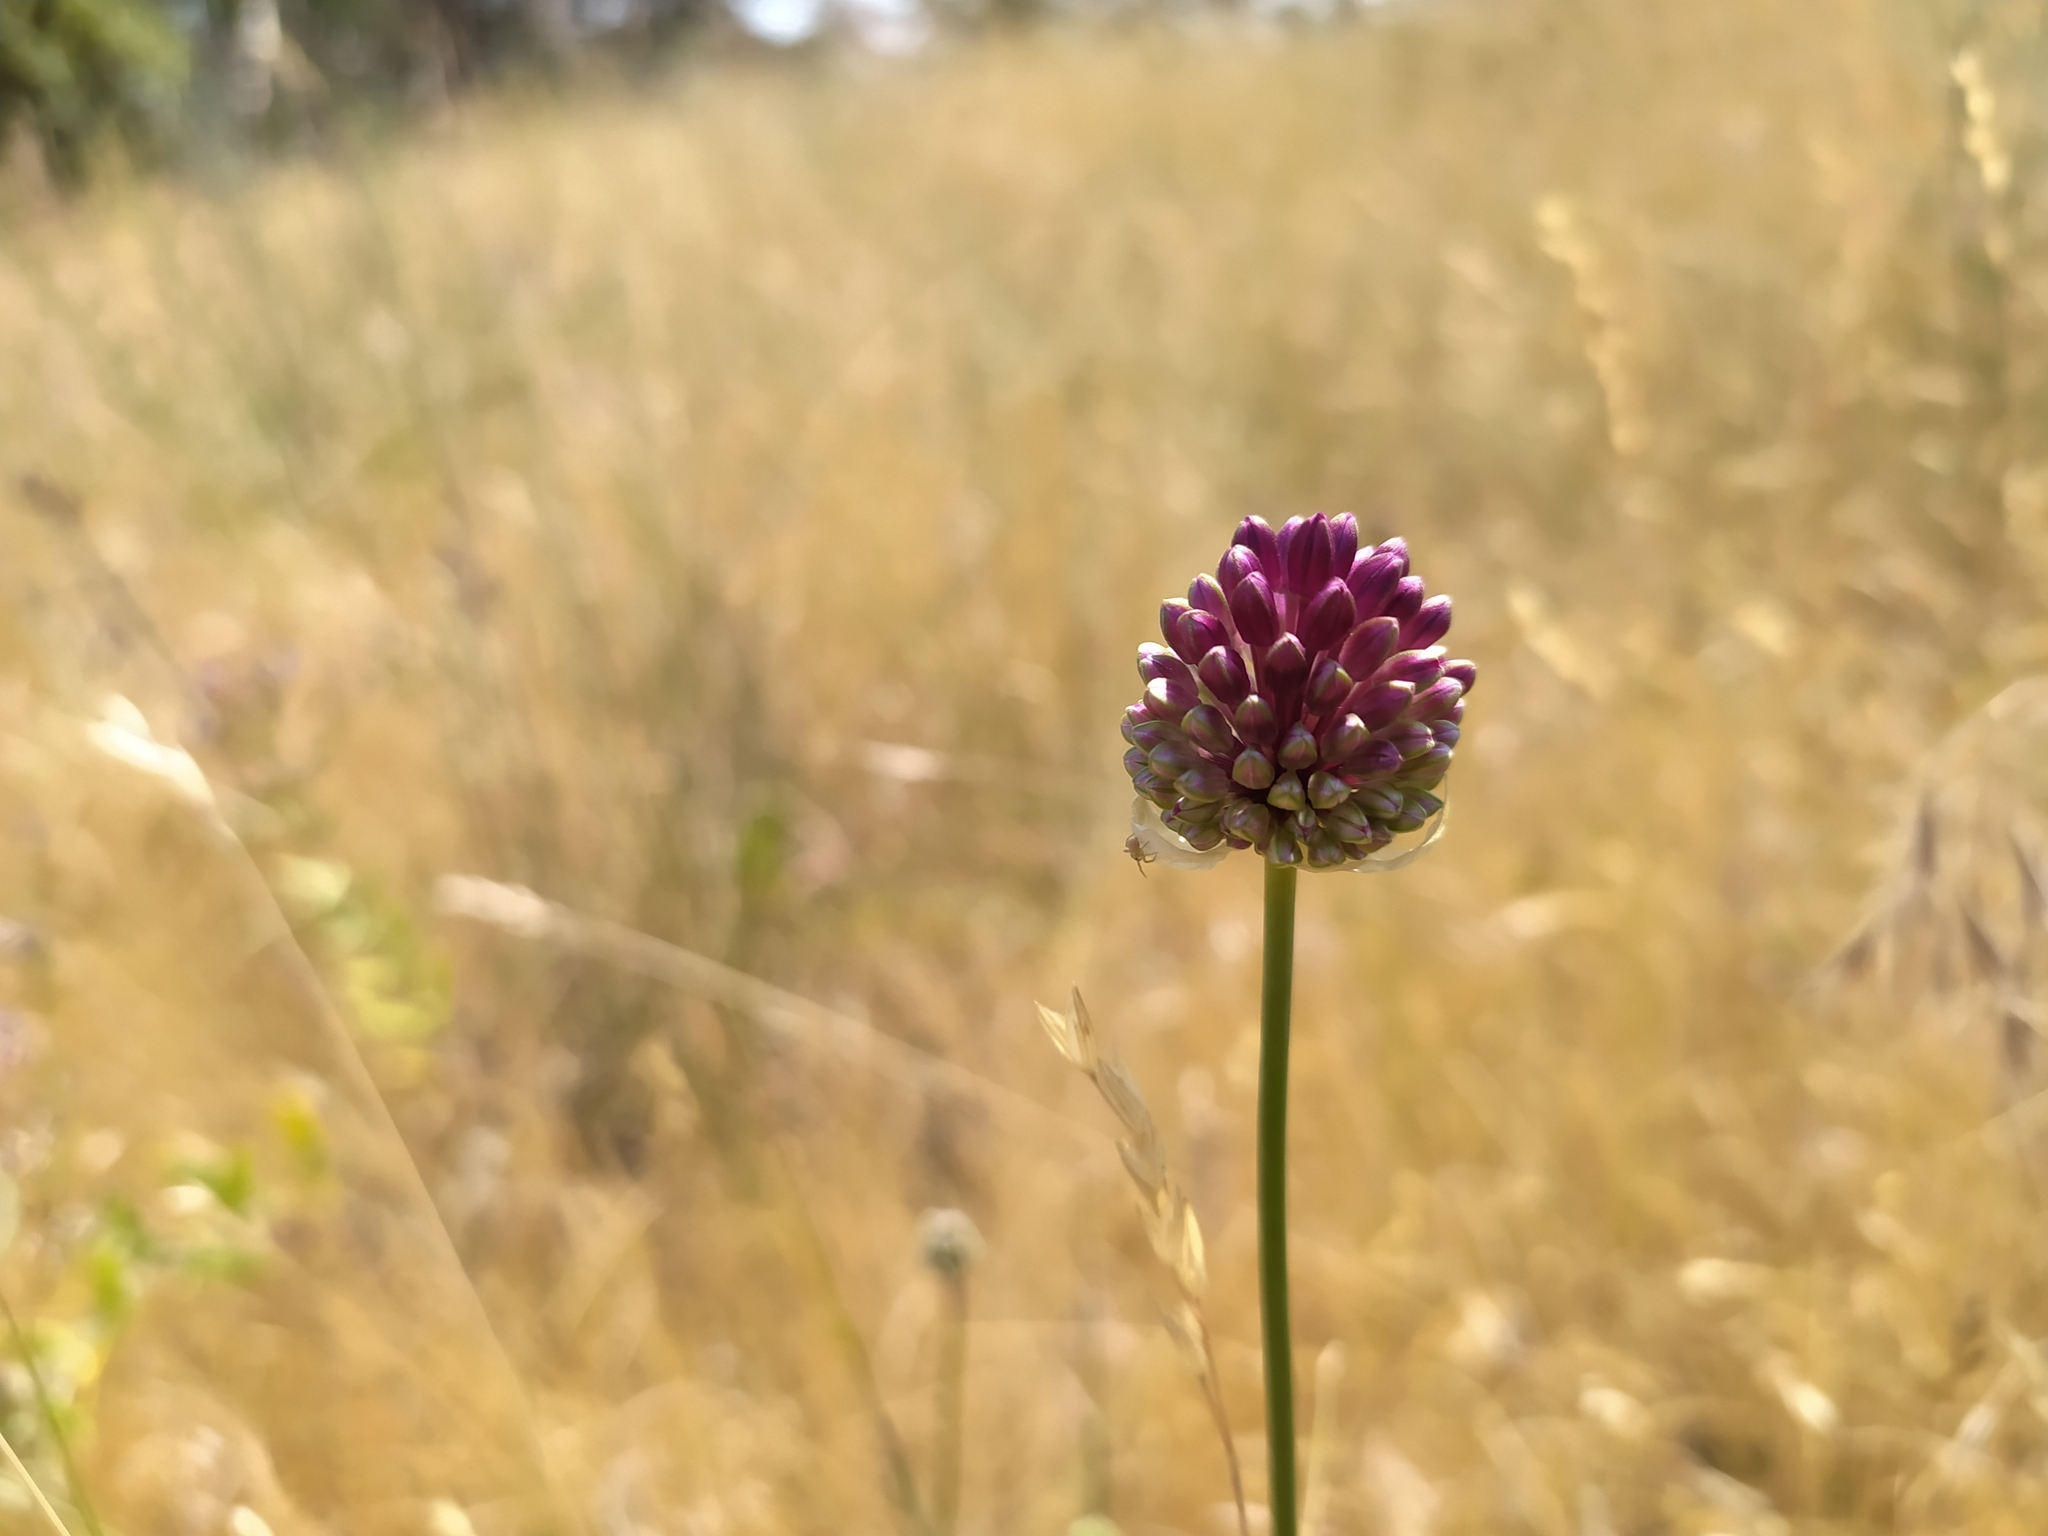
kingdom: Plantae
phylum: Tracheophyta
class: Liliopsida
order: Asparagales
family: Amaryllidaceae
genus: Allium
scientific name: Allium sphaerocephalon
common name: Round-headed leek
